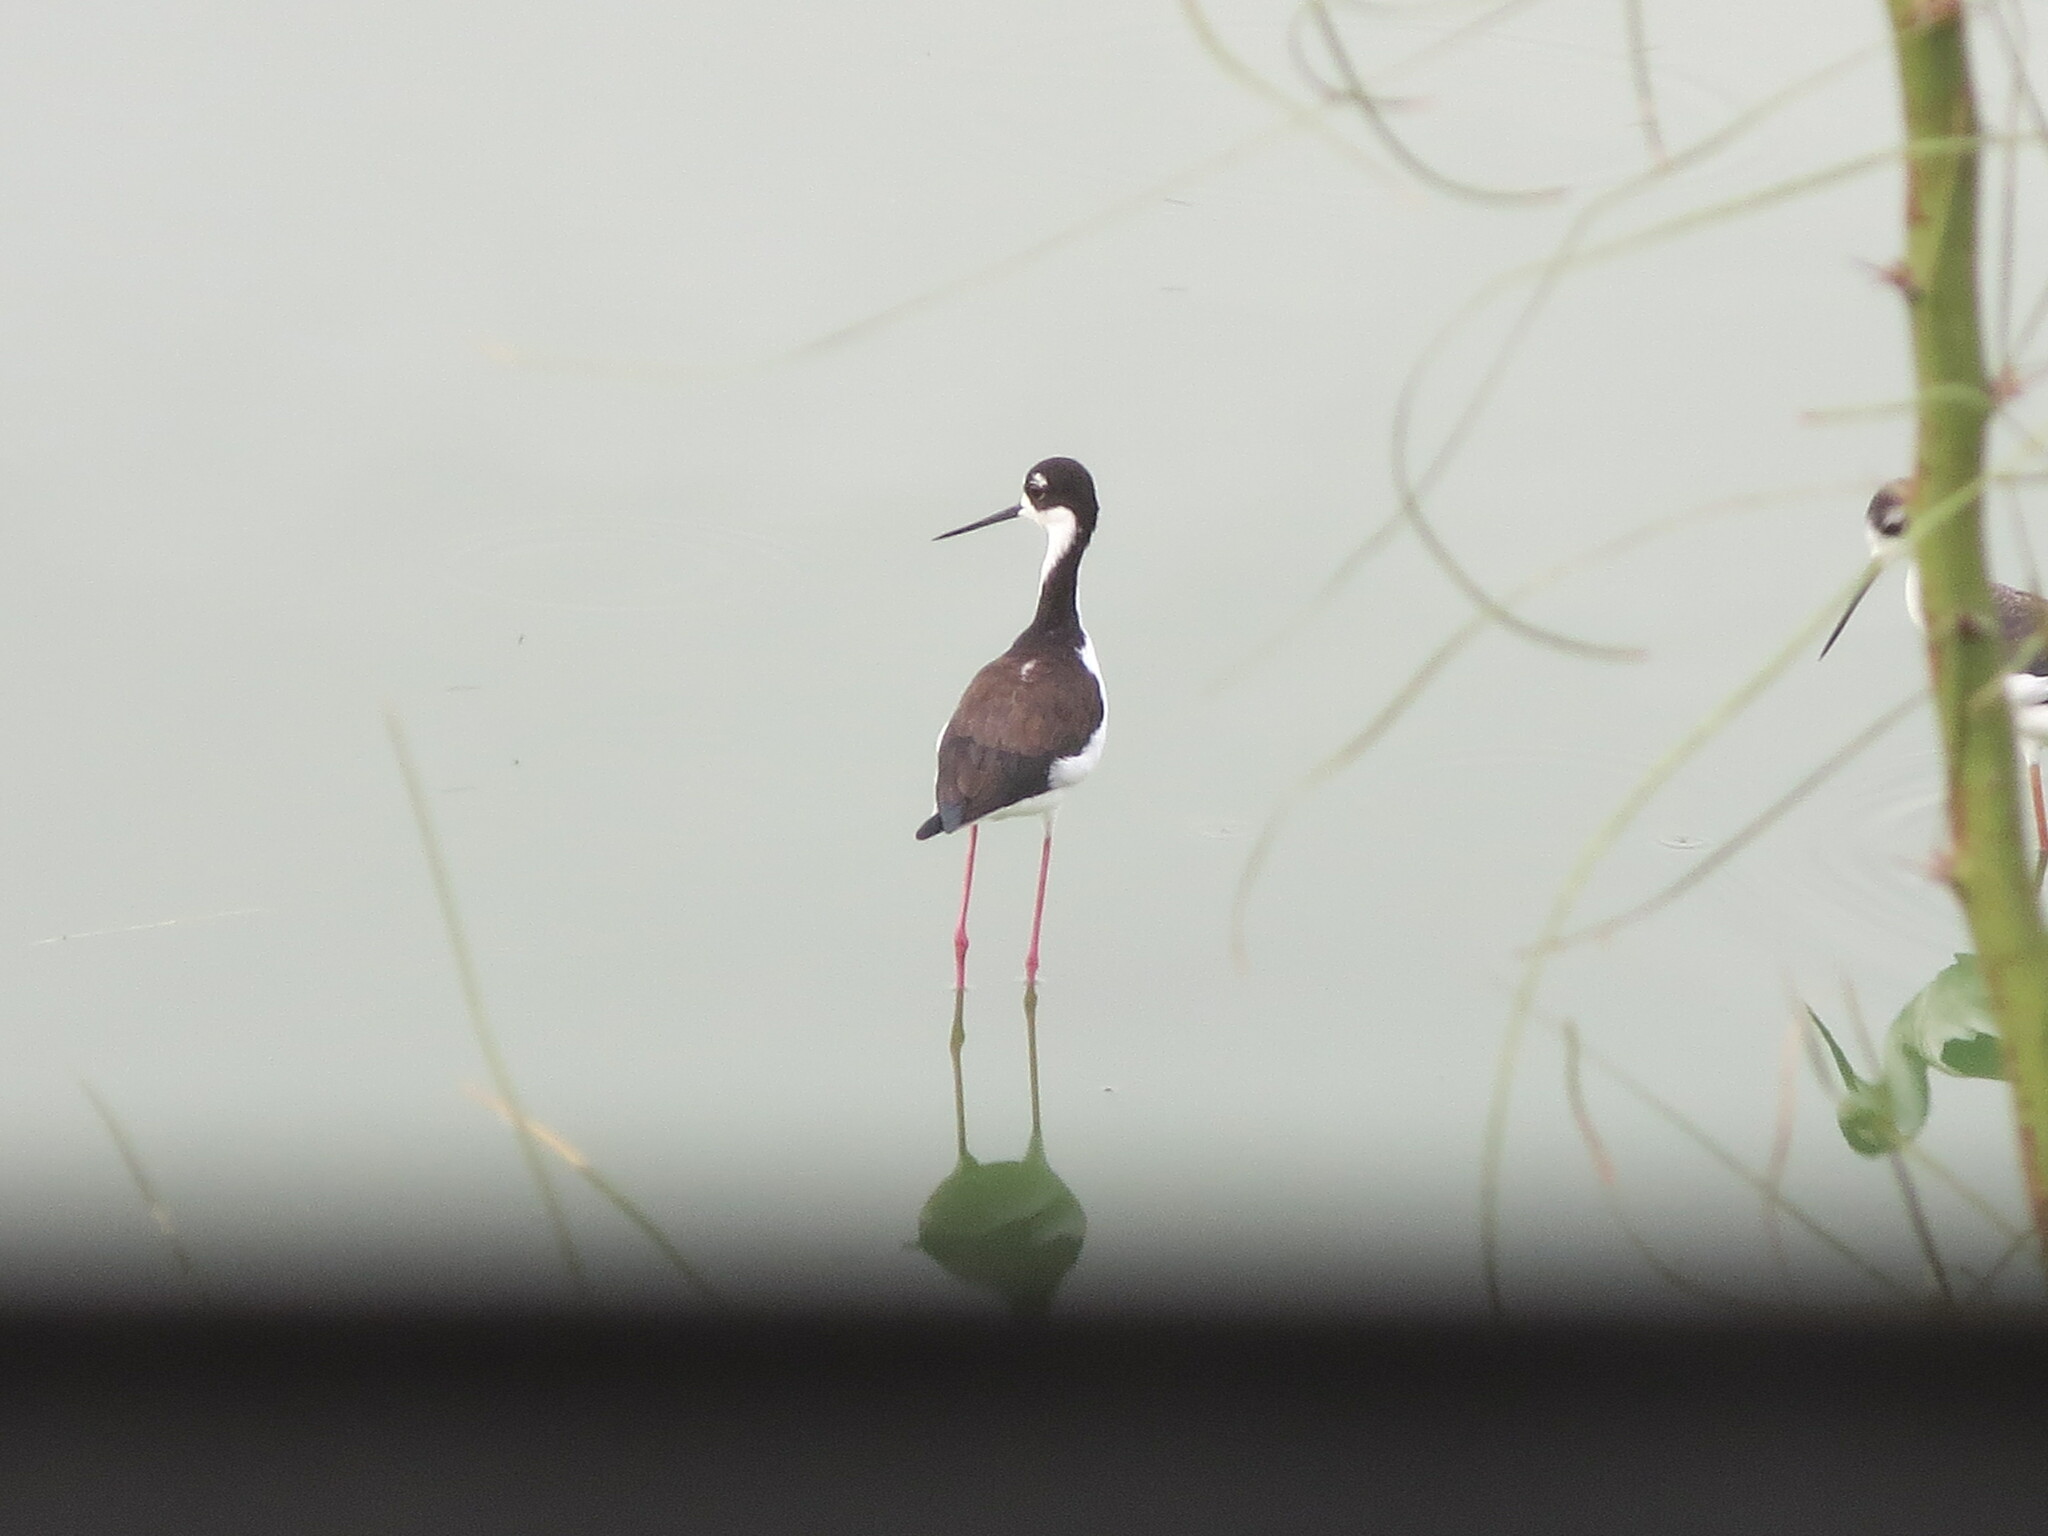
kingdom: Animalia
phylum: Chordata
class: Aves
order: Charadriiformes
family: Recurvirostridae
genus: Himantopus
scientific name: Himantopus mexicanus
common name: Black-necked stilt
